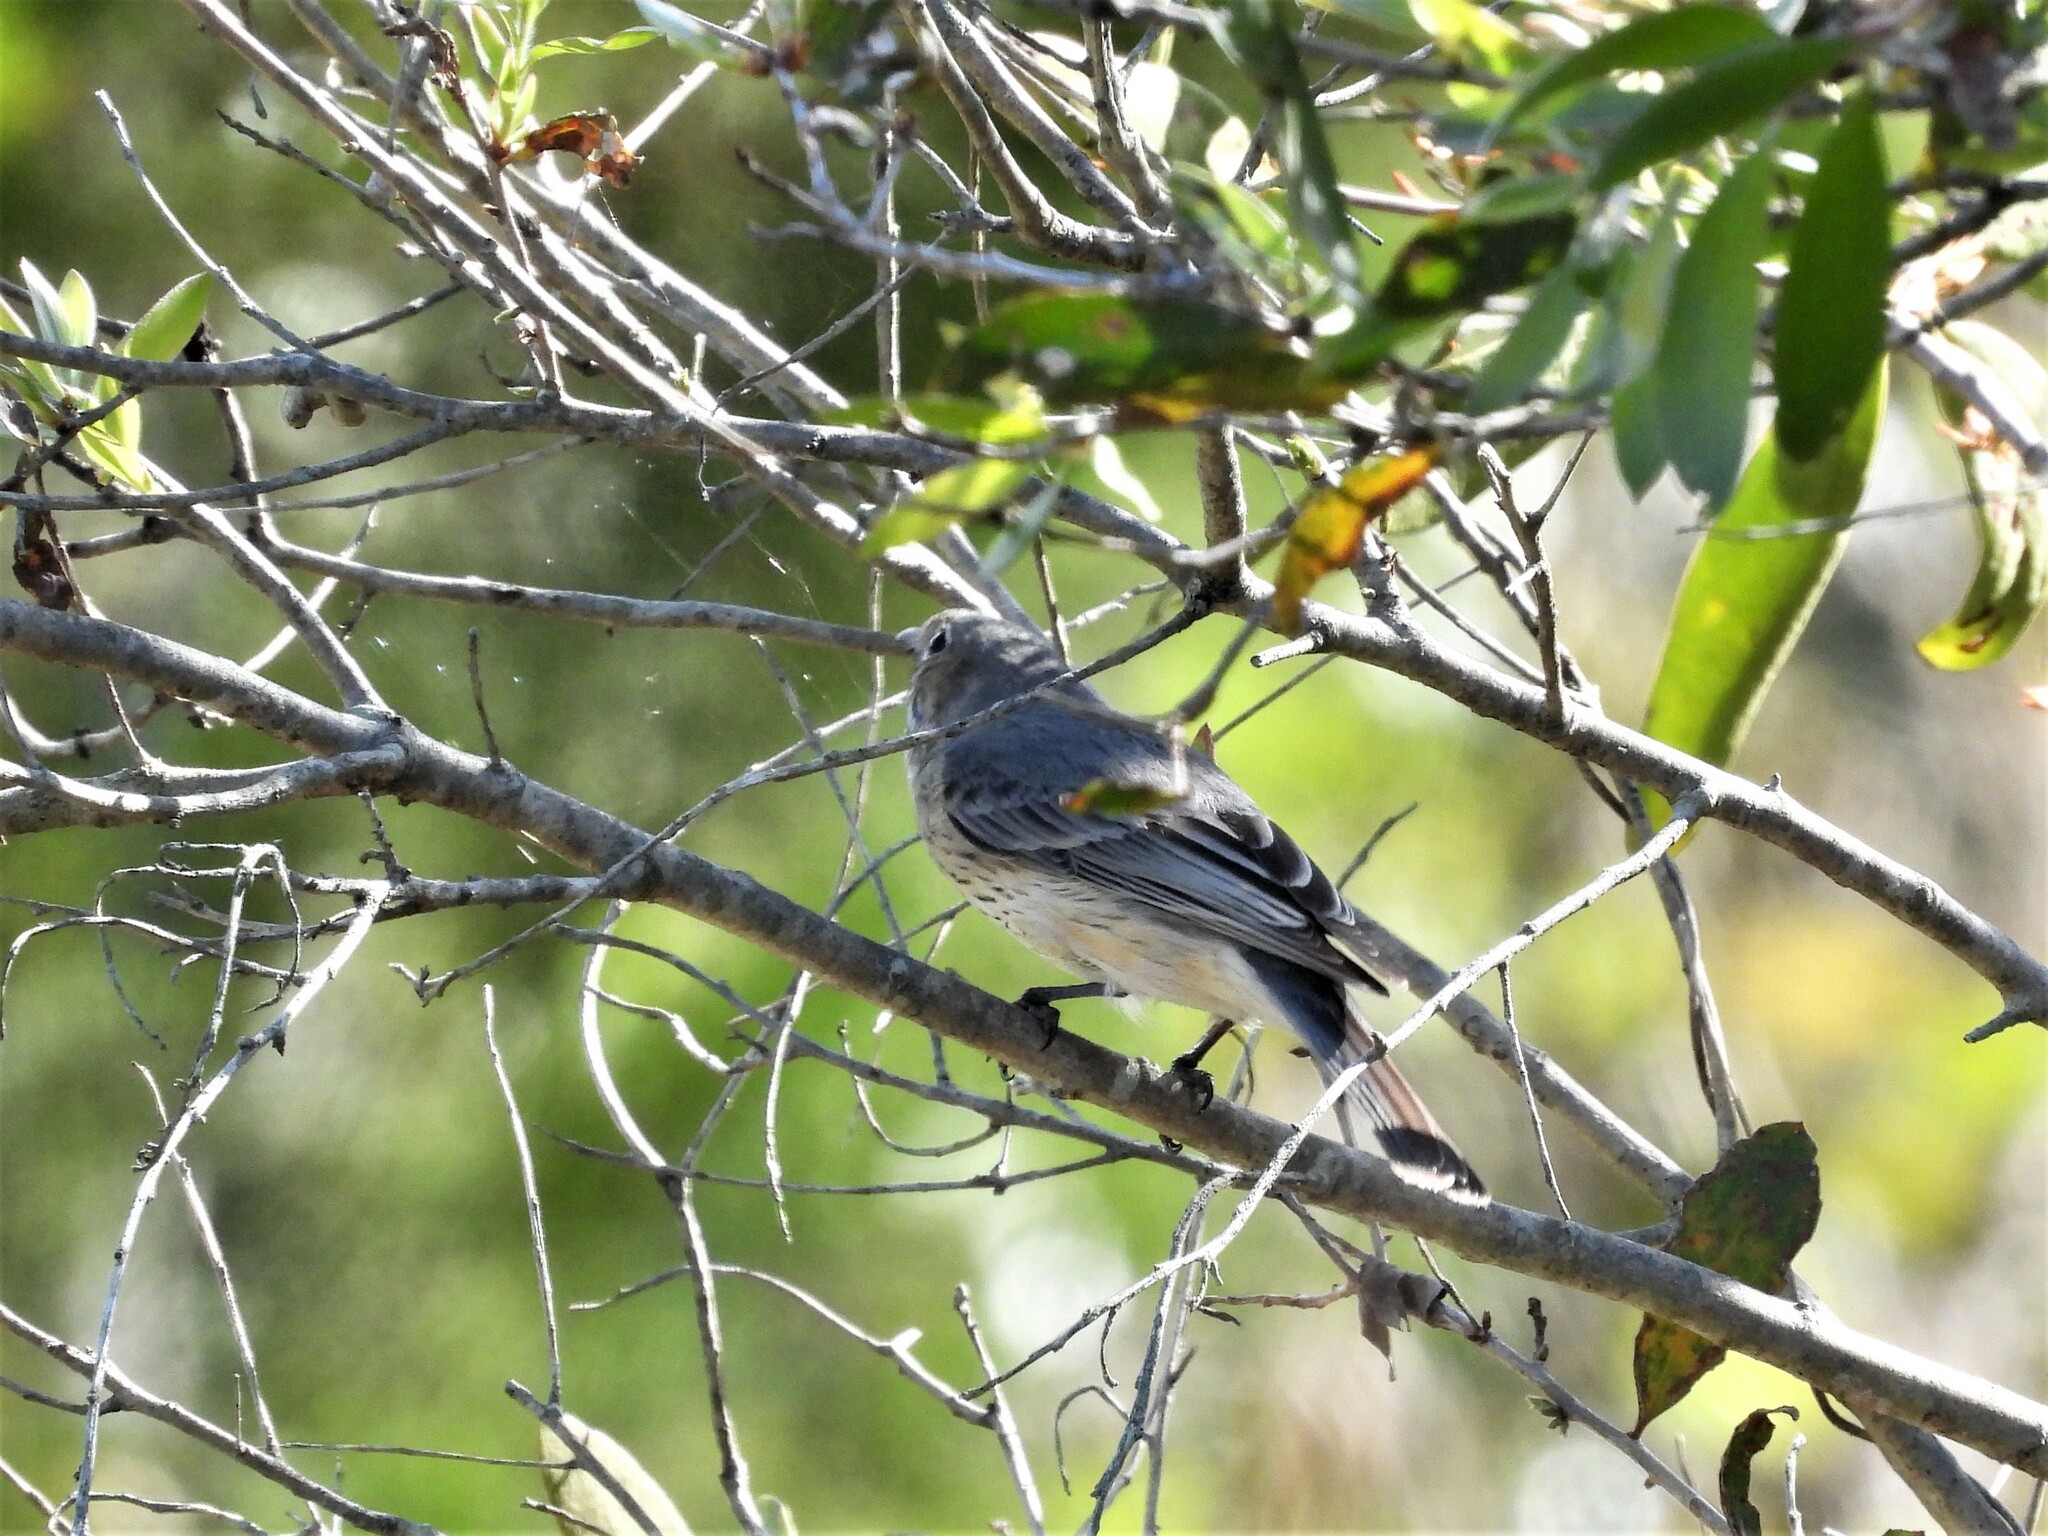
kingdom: Animalia
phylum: Chordata
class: Aves
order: Passeriformes
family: Pachycephalidae
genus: Pachycephala
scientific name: Pachycephala rufiventris
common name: Rufous whistler
